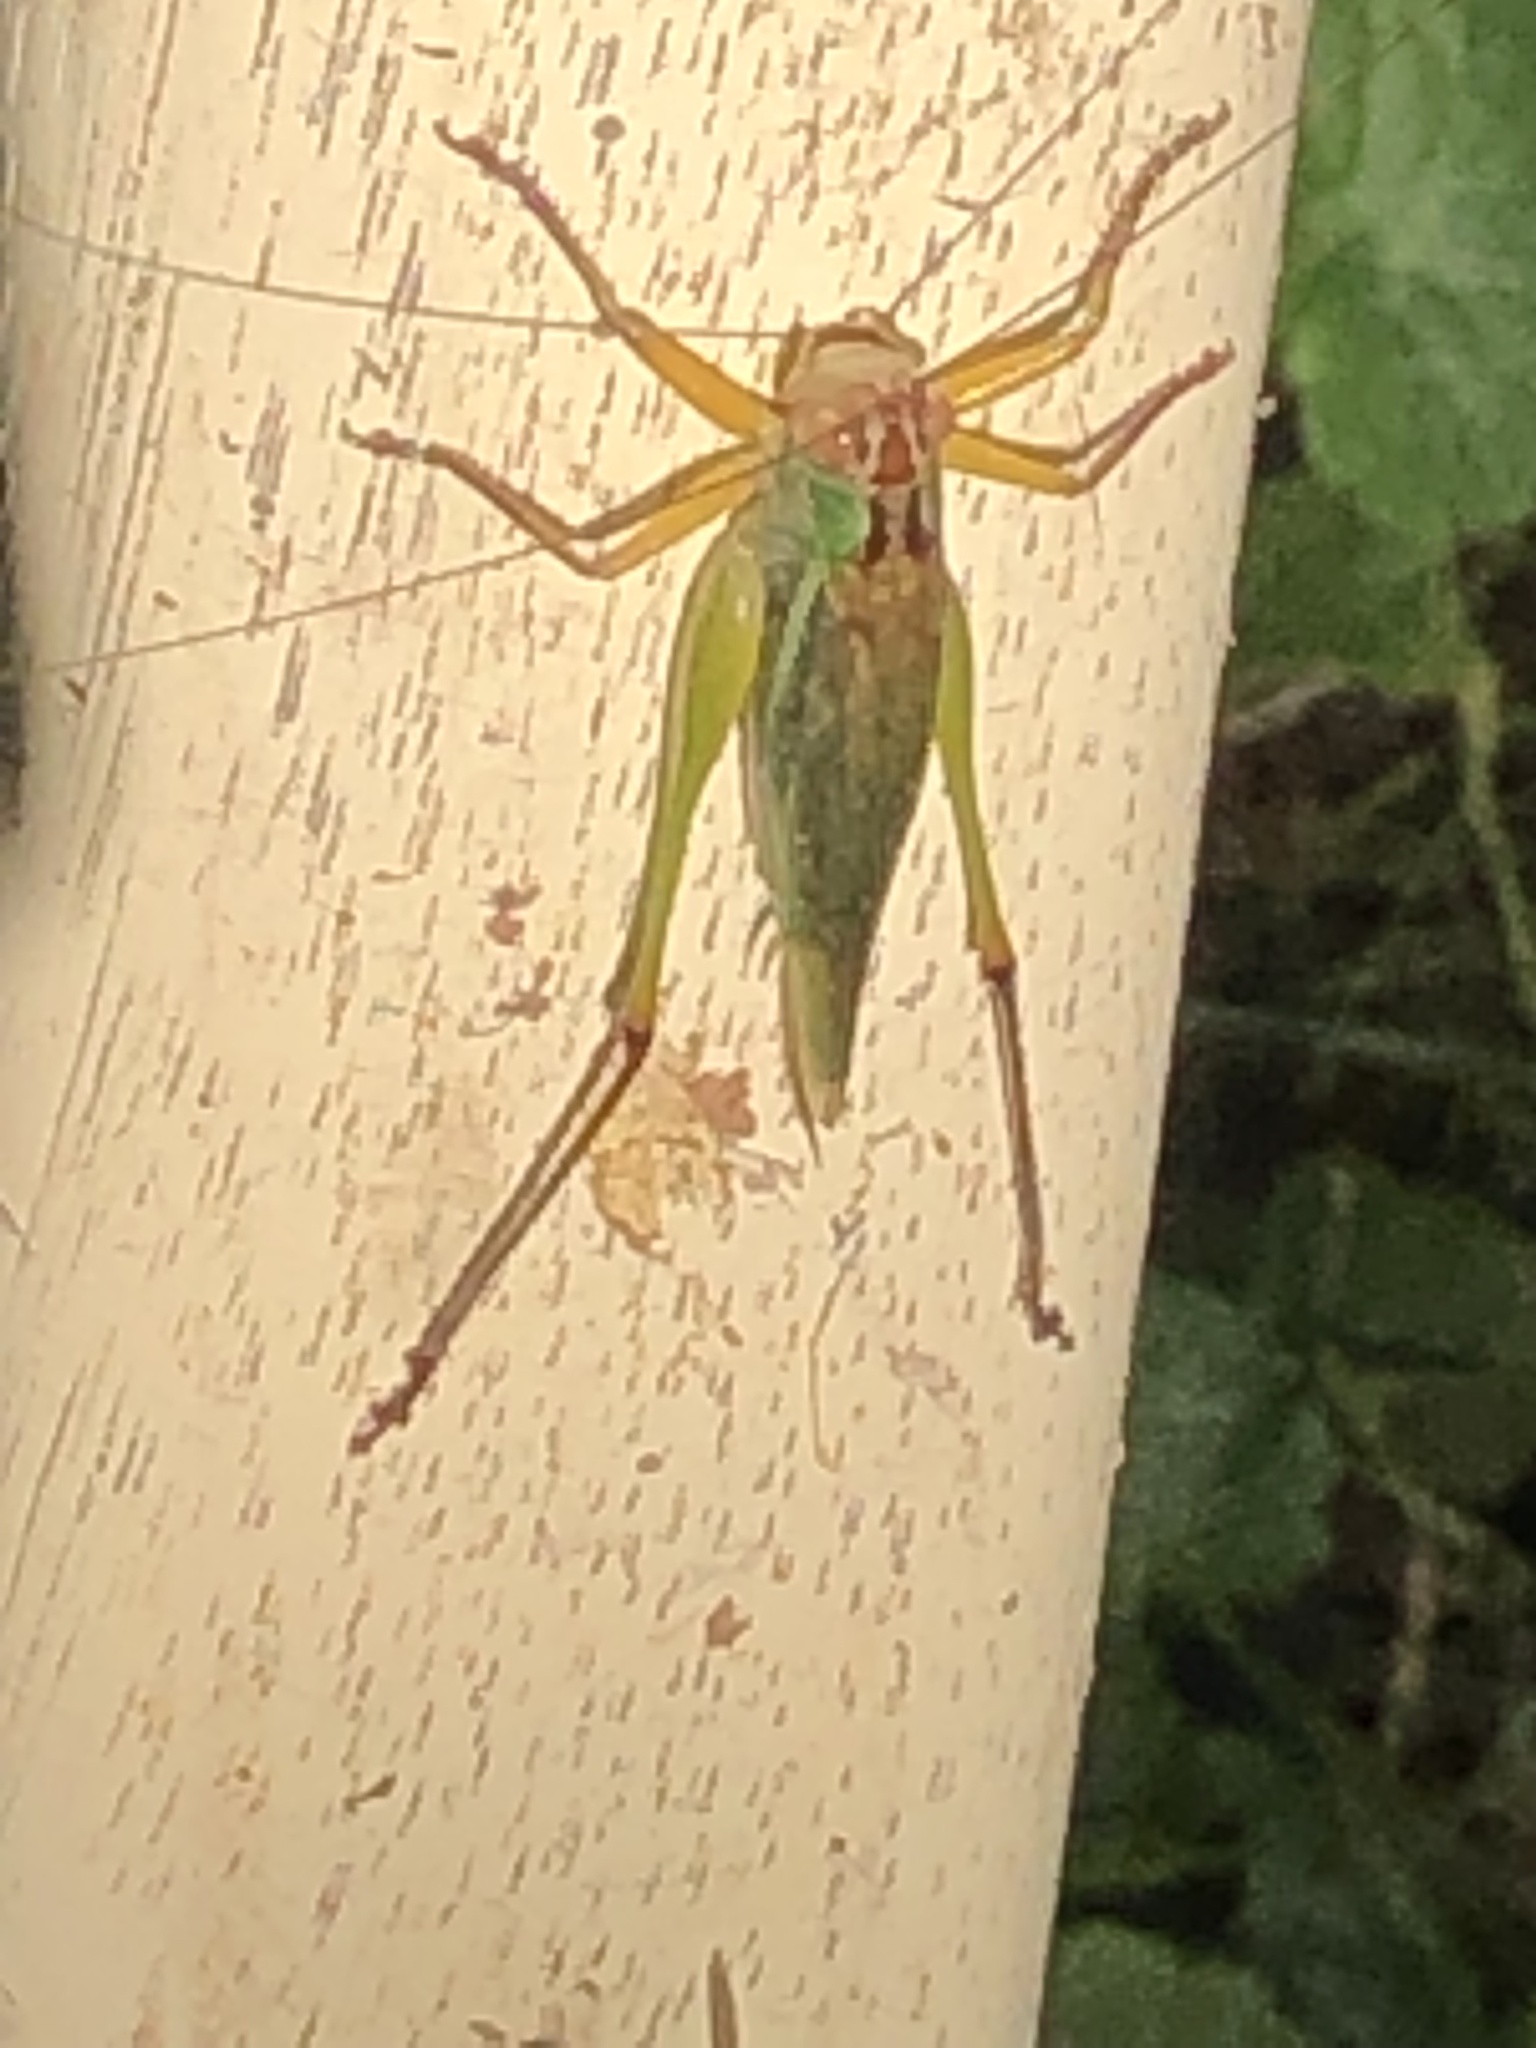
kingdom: Animalia
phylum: Arthropoda
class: Insecta
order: Orthoptera
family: Tettigoniidae
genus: Orchelimum
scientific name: Orchelimum nigripes
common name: Black-legged meadow katydid
